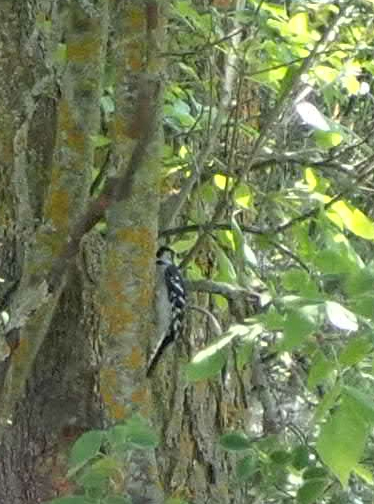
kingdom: Animalia
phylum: Chordata
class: Aves
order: Piciformes
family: Picidae
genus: Dryobates
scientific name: Dryobates pubescens
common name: Downy woodpecker
